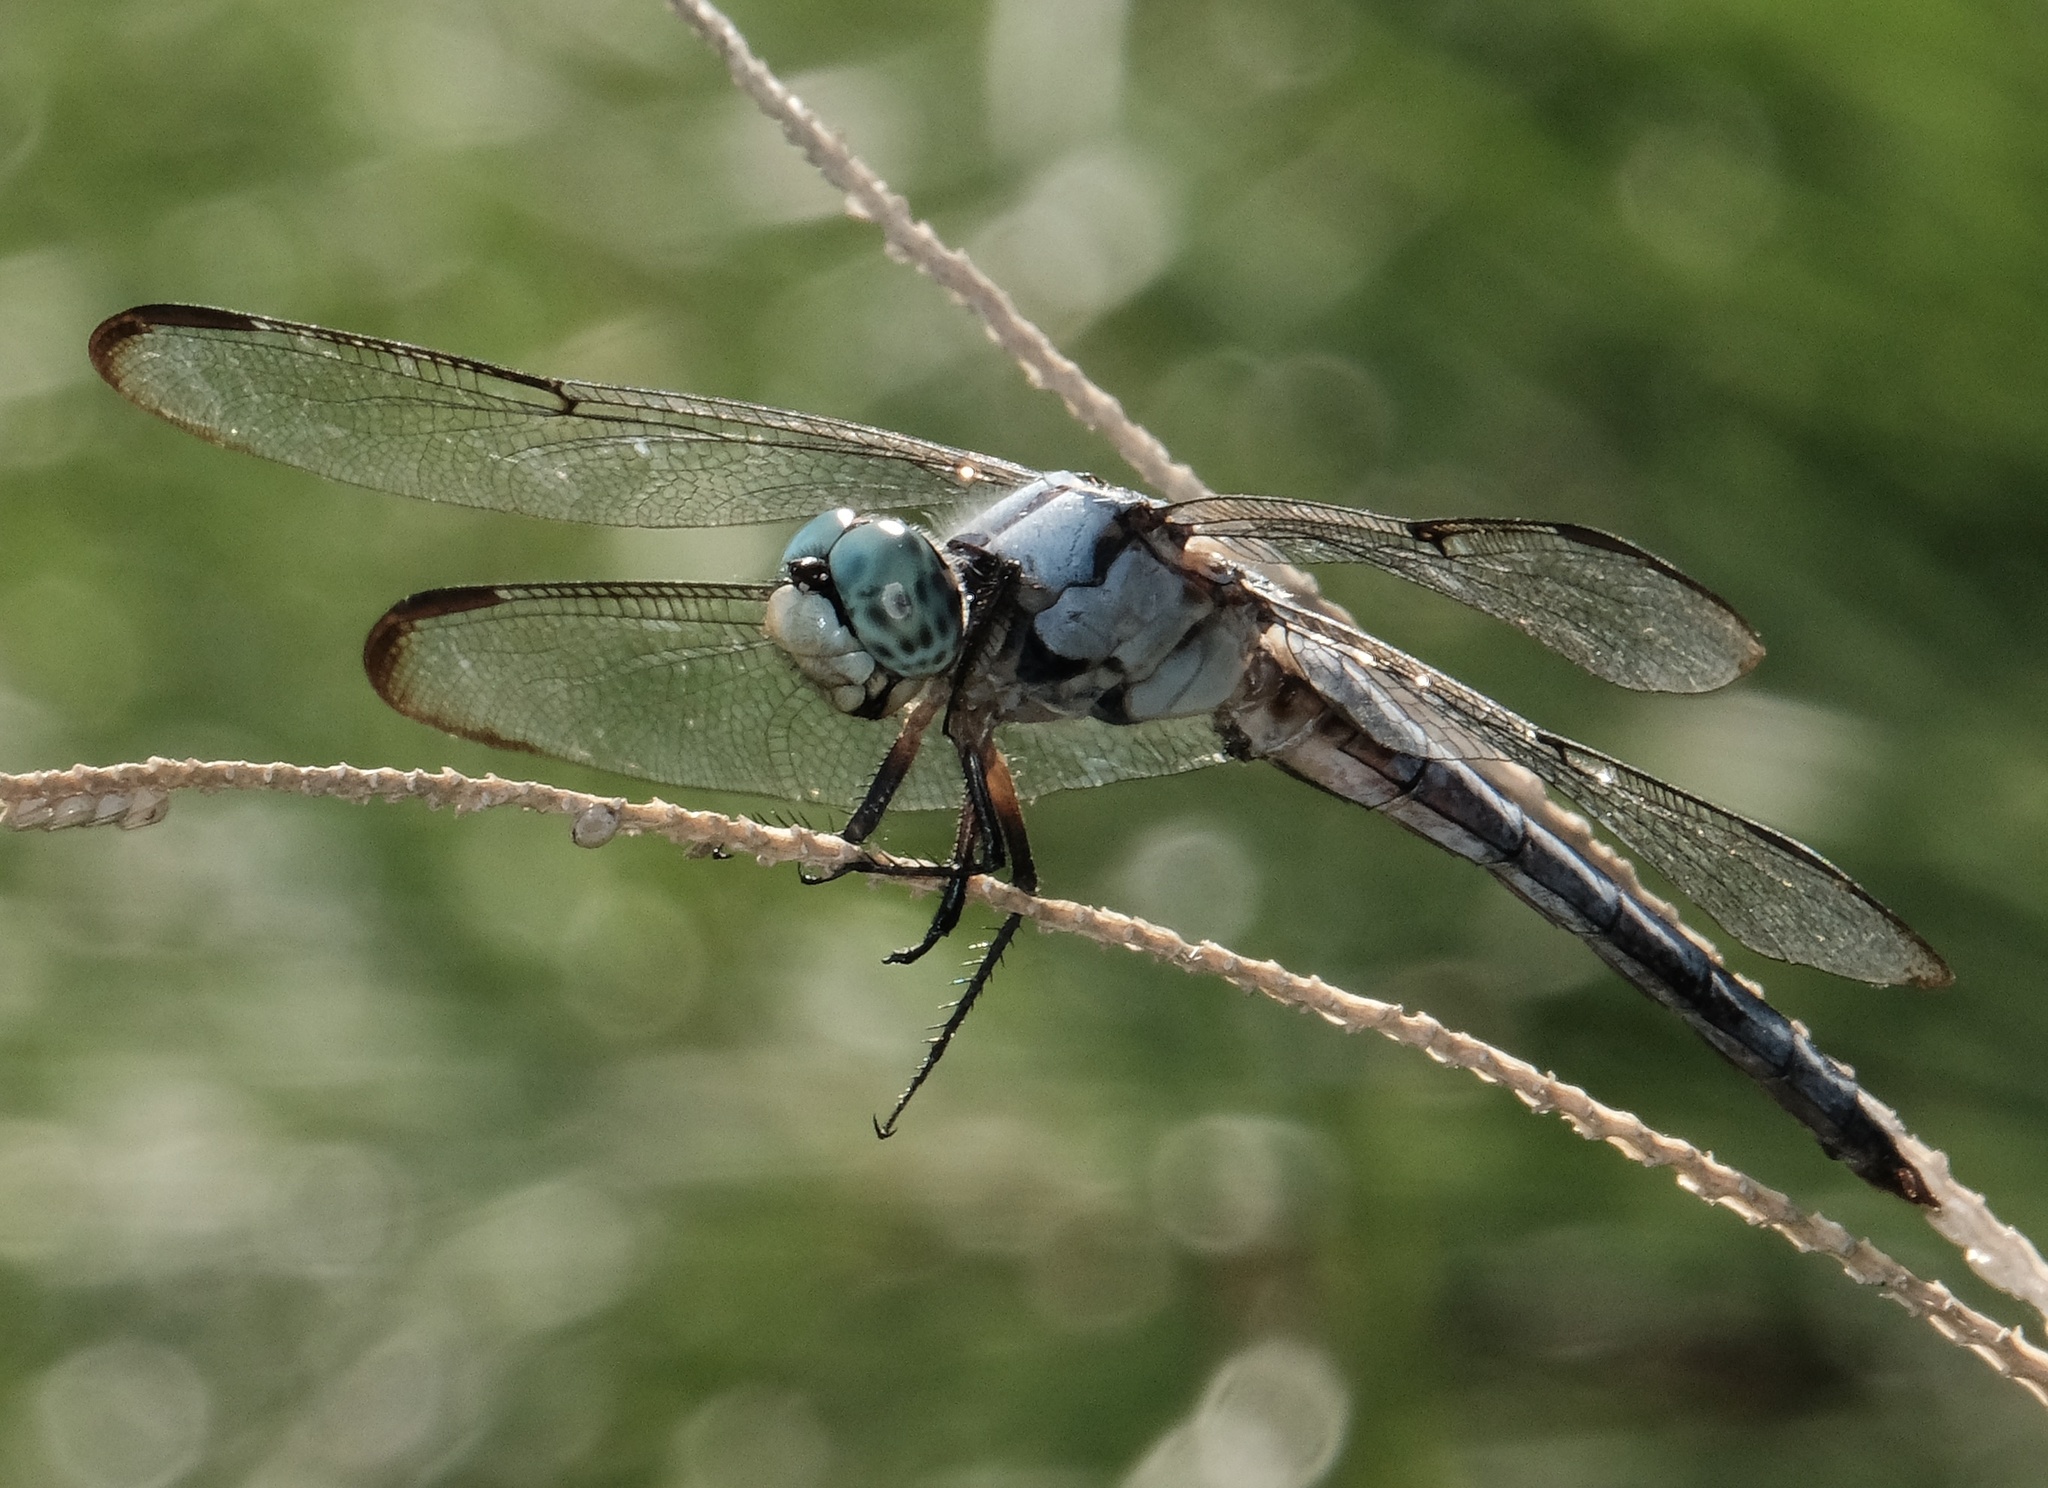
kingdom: Animalia
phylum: Arthropoda
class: Insecta
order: Odonata
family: Libellulidae
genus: Libellula
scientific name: Libellula vibrans
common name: Great blue skimmer
